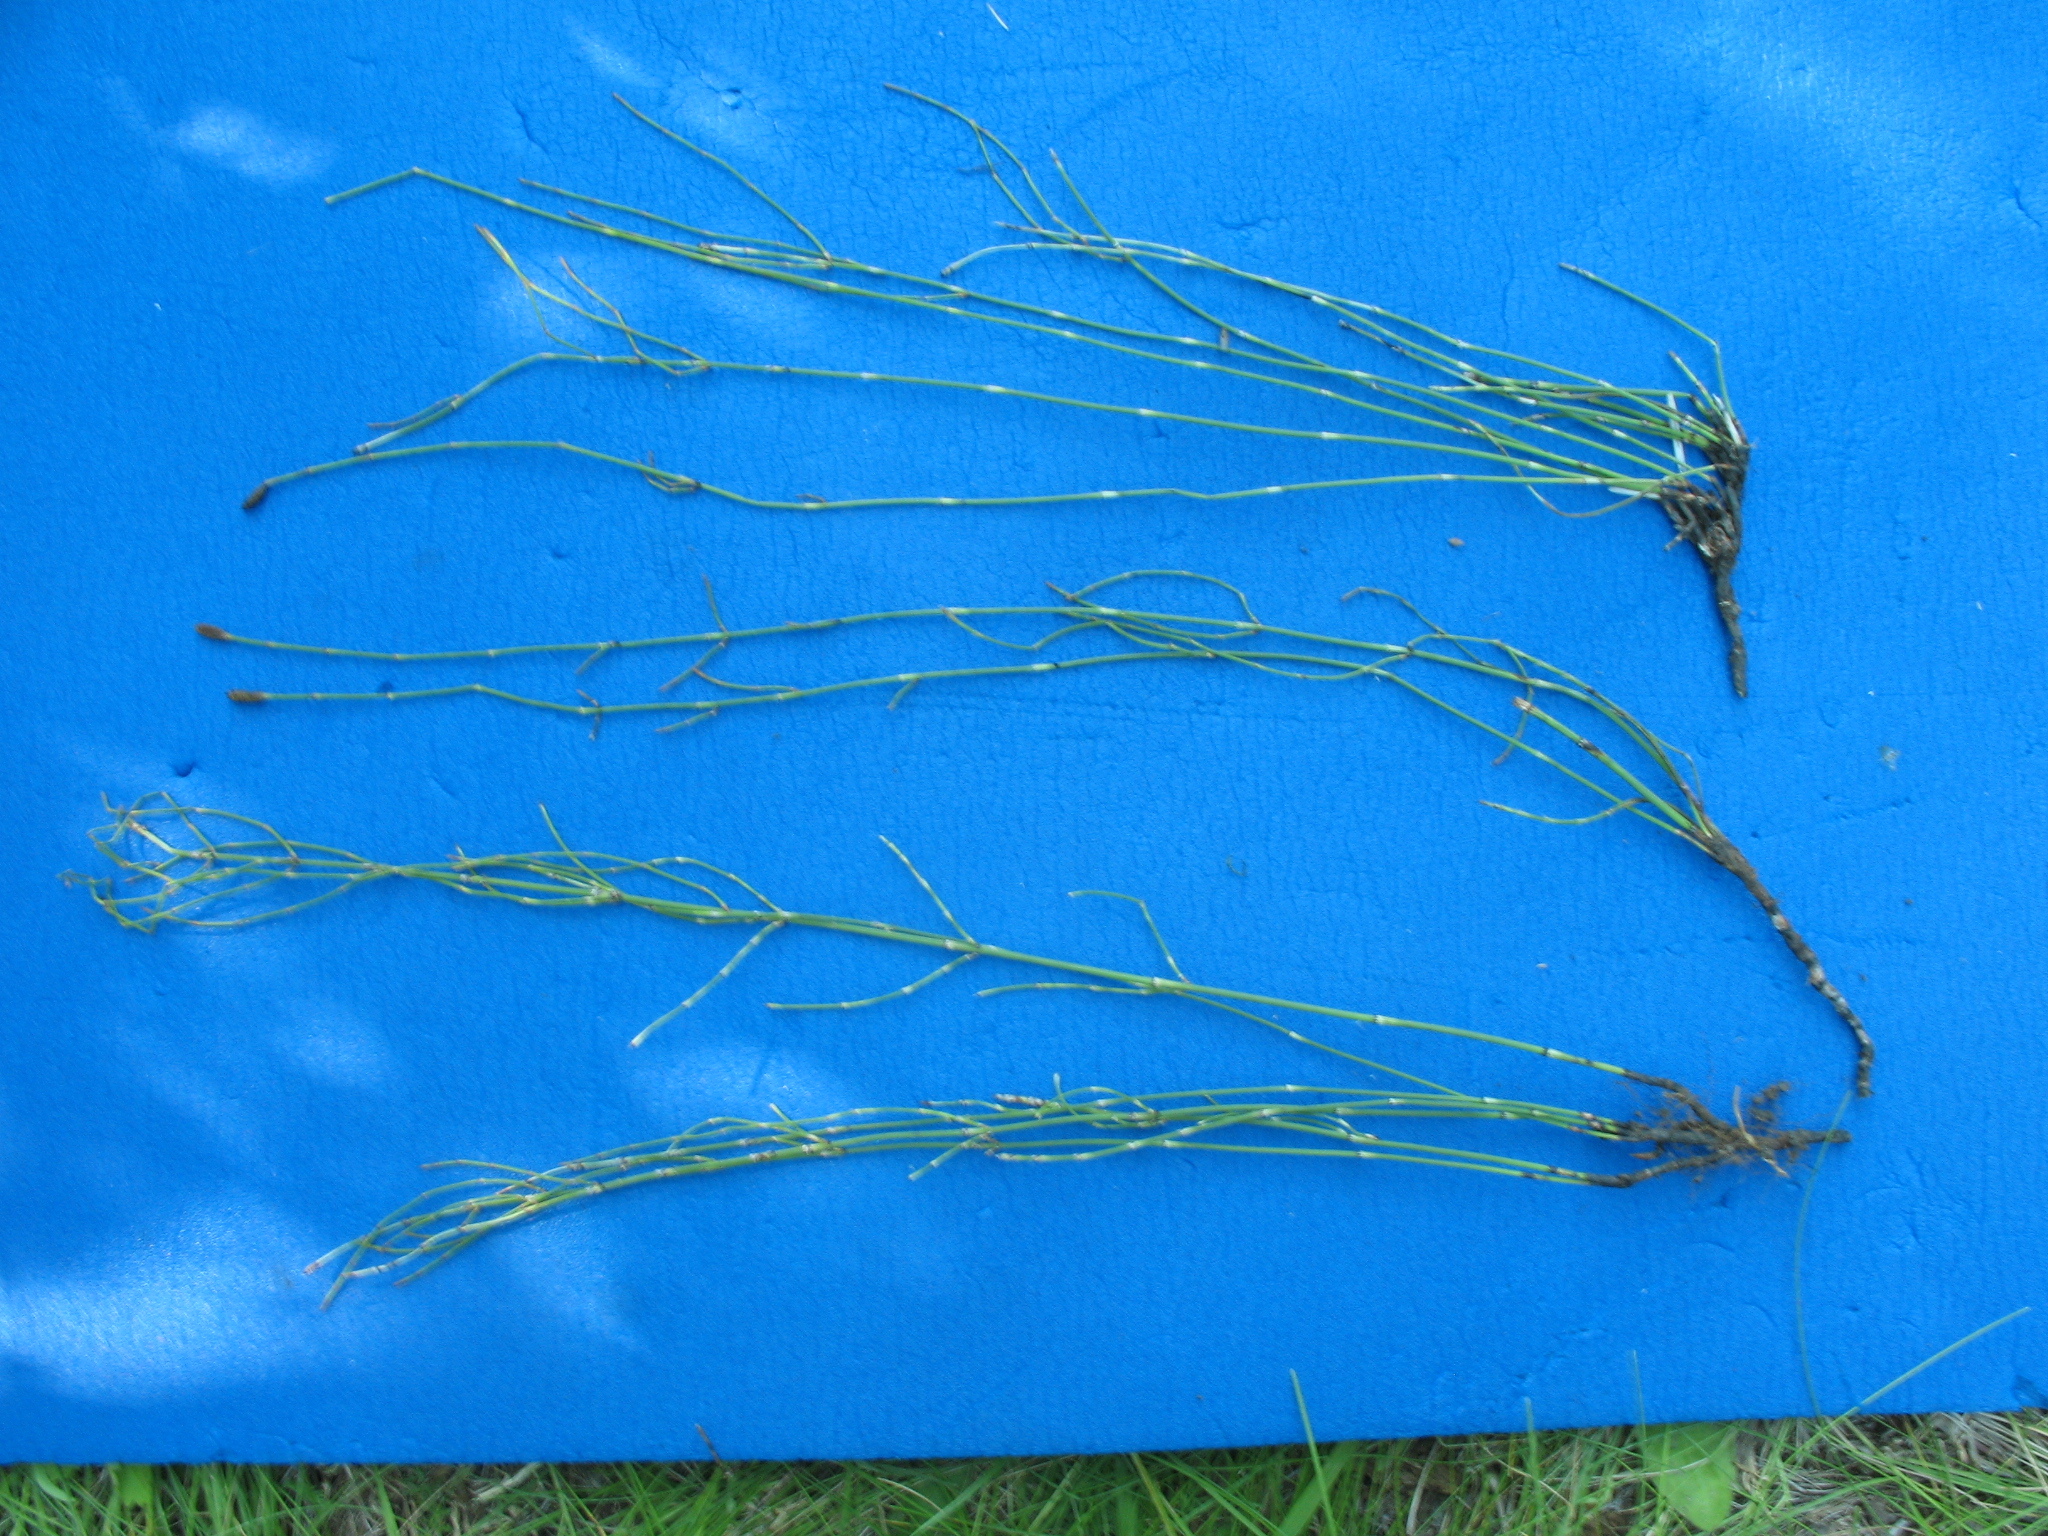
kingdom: Plantae
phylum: Tracheophyta
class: Polypodiopsida
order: Equisetales
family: Equisetaceae
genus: Equisetum
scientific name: Equisetum ramosissimum
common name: Branched horsetail
